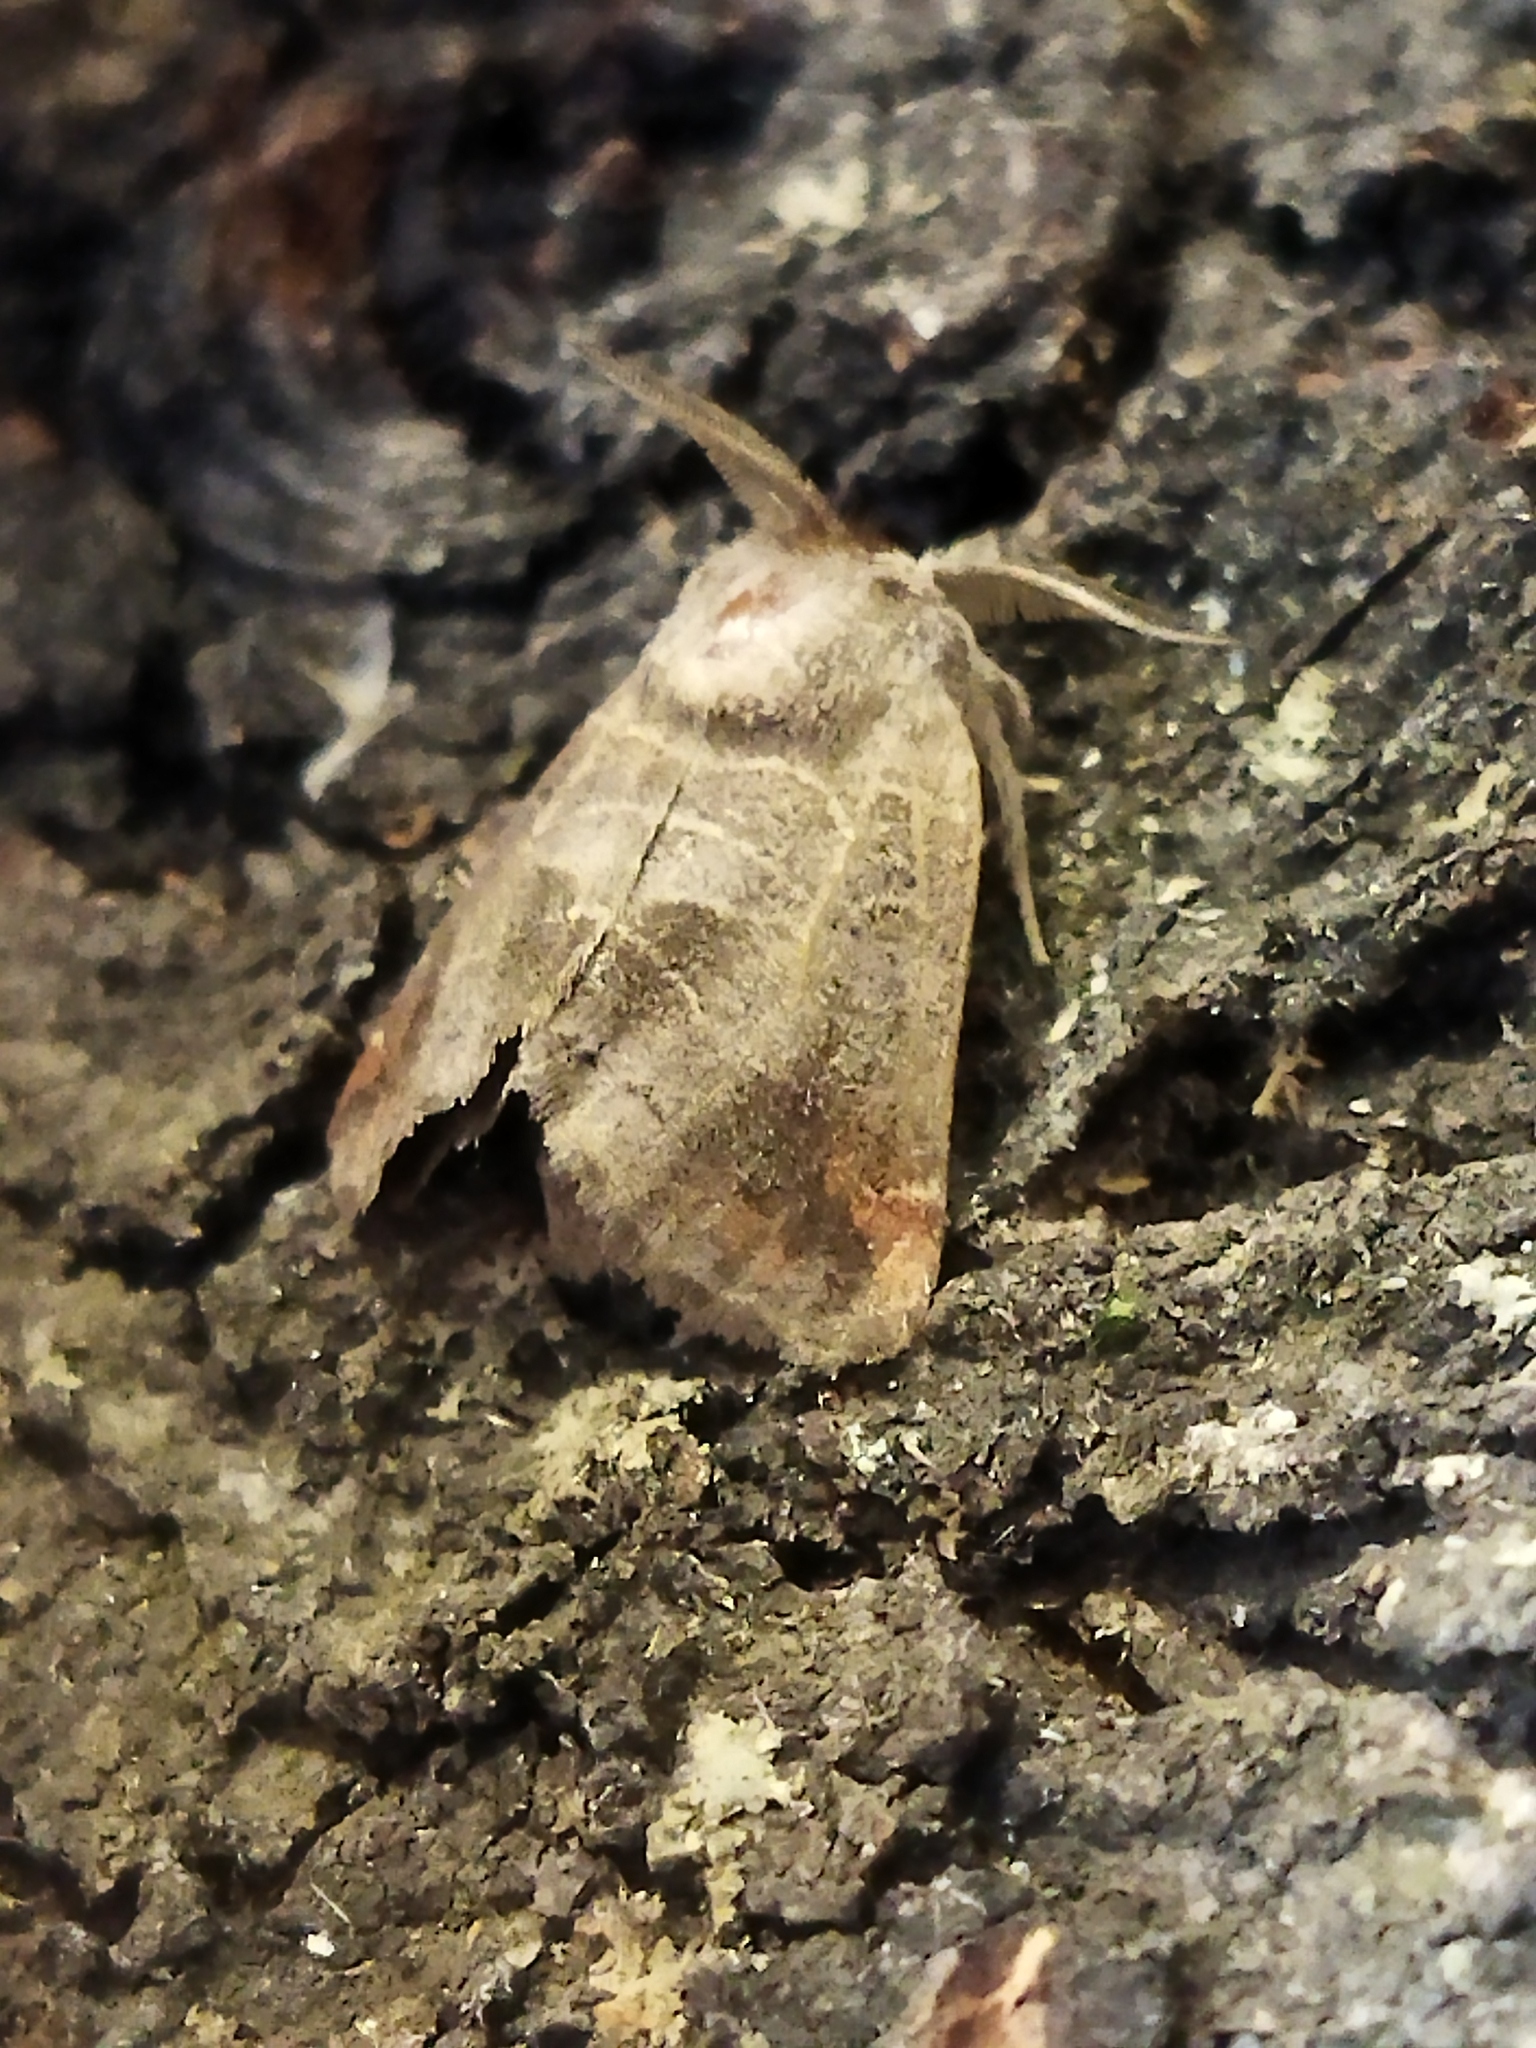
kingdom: Animalia
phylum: Arthropoda
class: Insecta
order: Lepidoptera
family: Notodontidae
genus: Clostera
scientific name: Clostera pigra
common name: Small chocolate-tip
